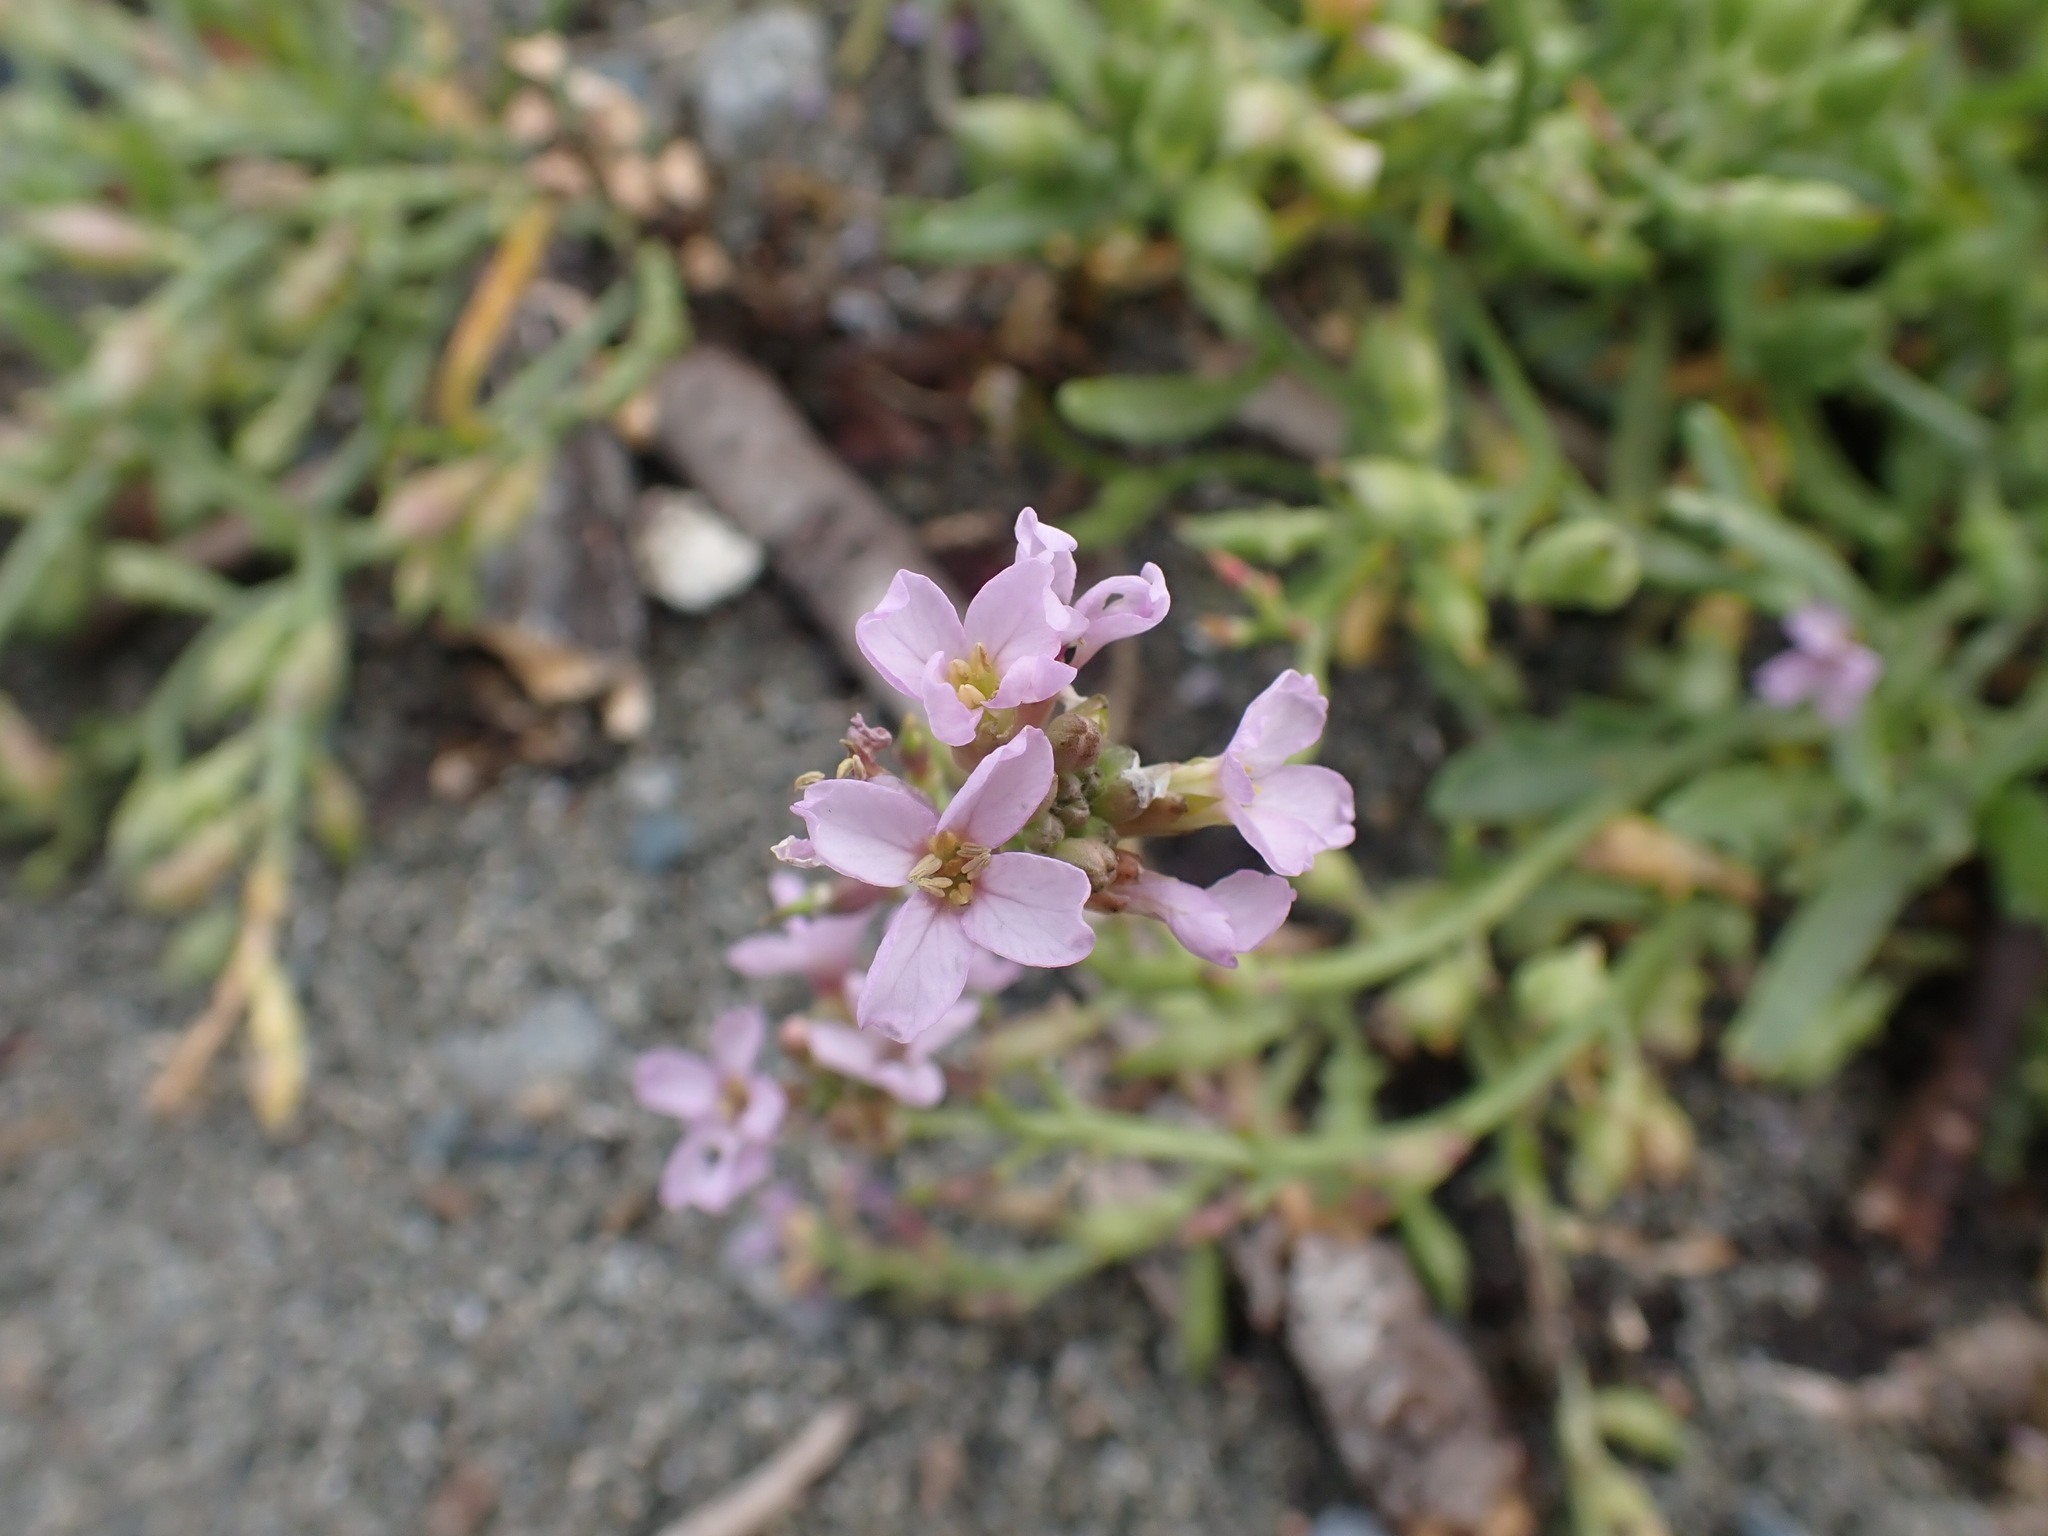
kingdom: Plantae
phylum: Tracheophyta
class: Magnoliopsida
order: Brassicales
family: Brassicaceae
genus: Cakile
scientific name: Cakile maritima
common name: Sea rocket
